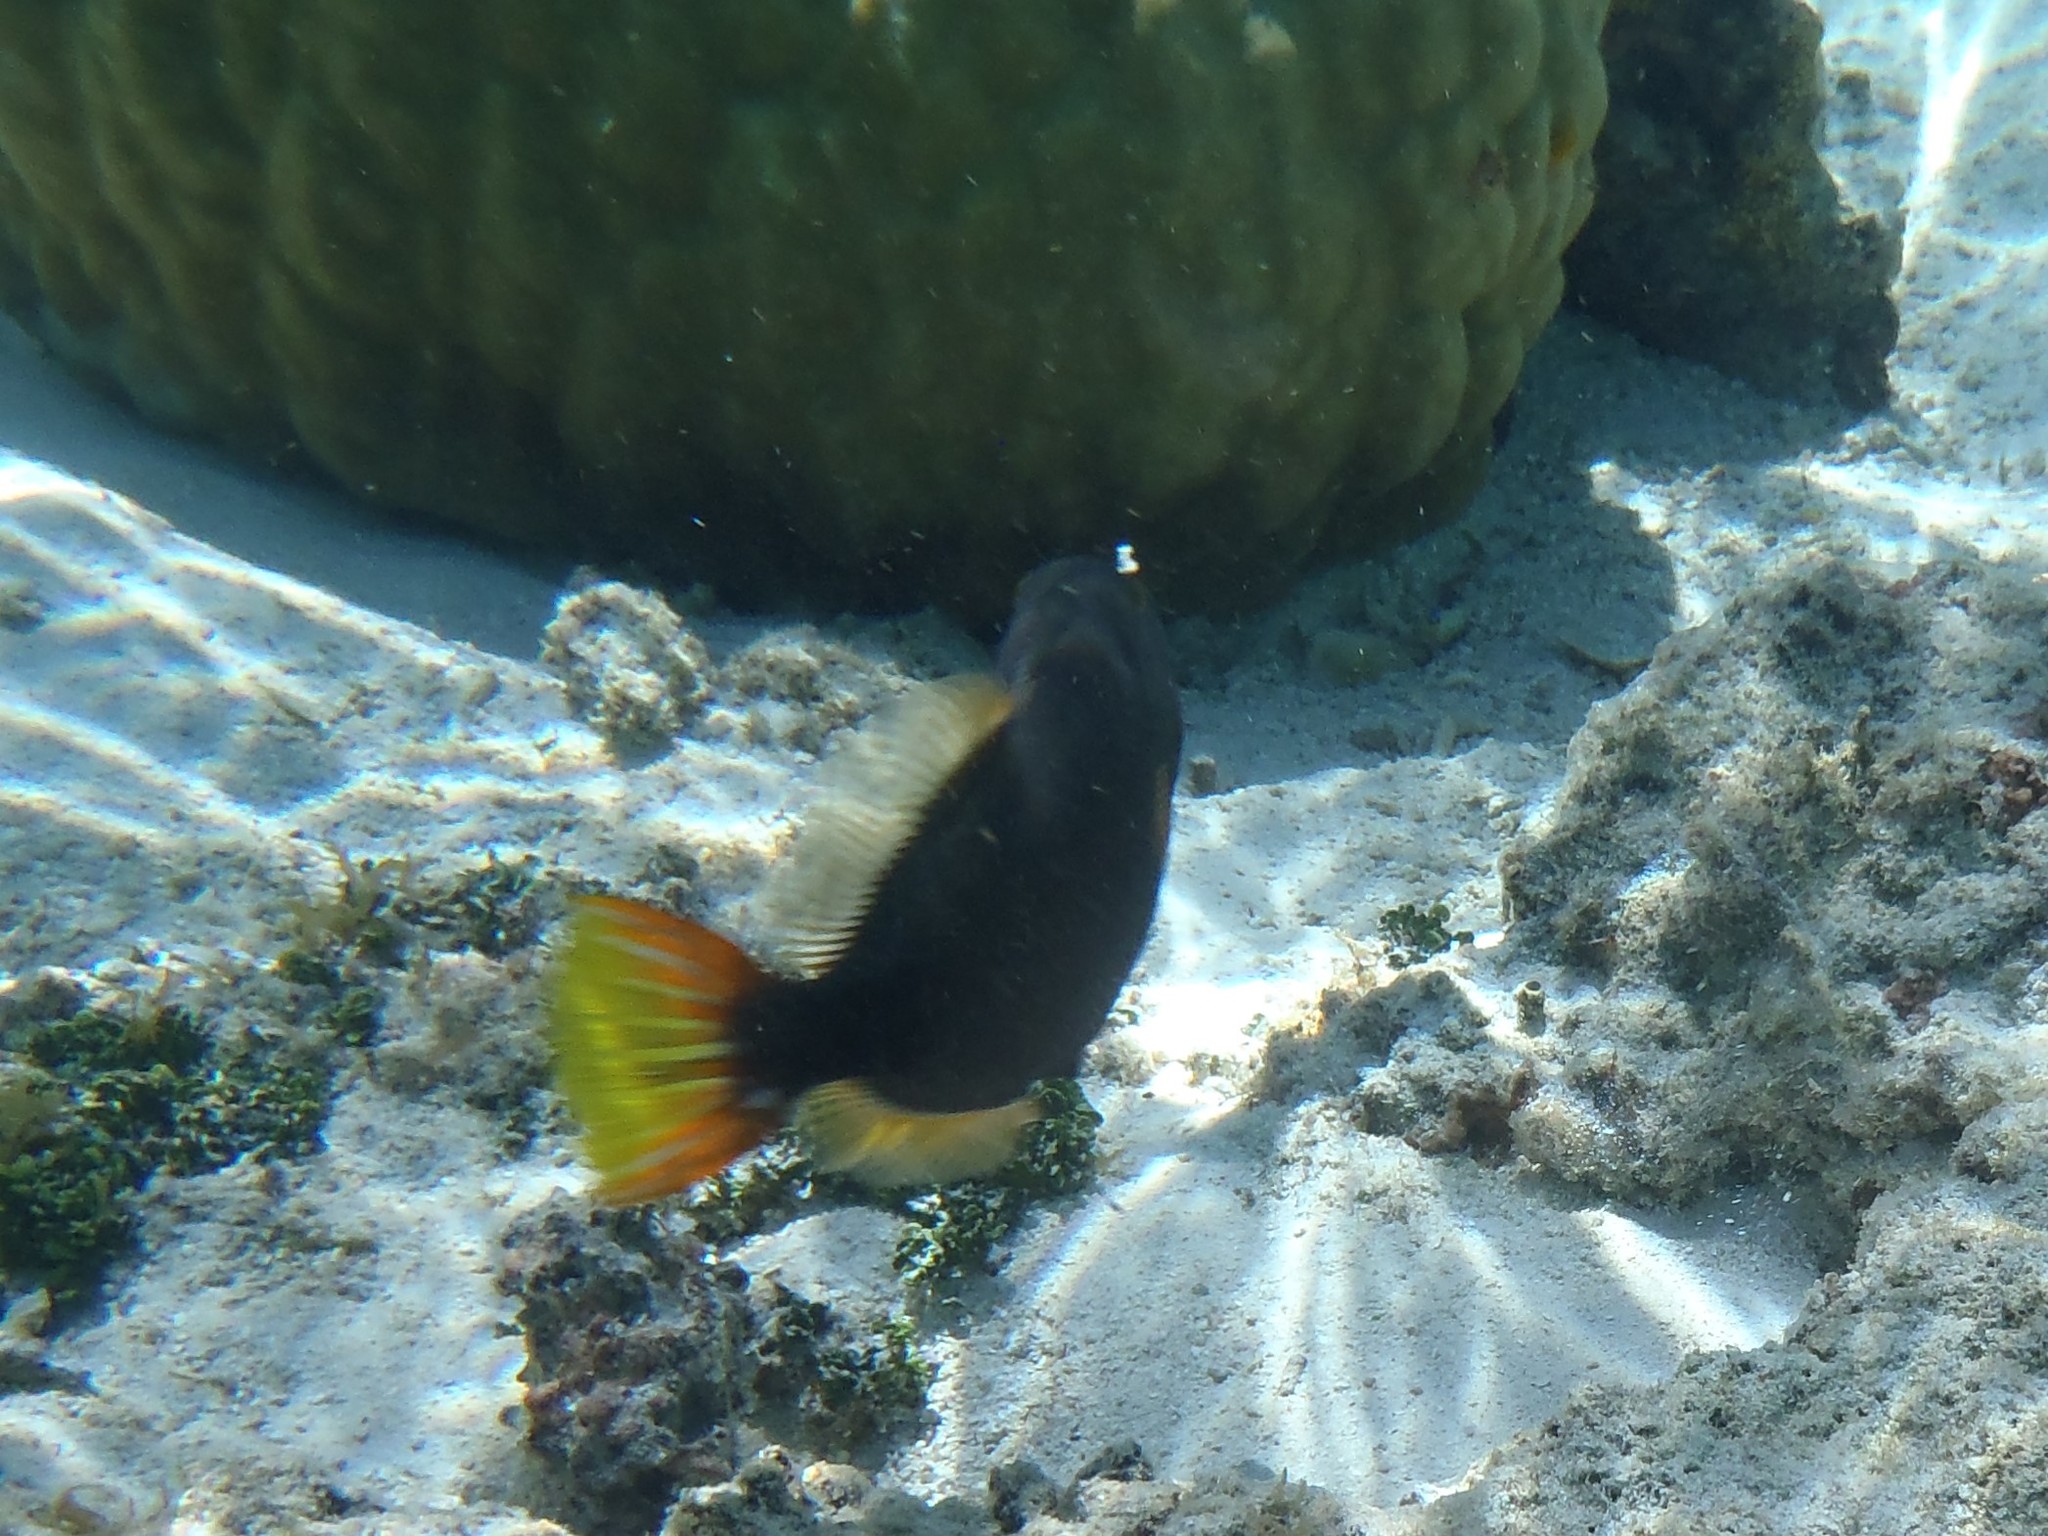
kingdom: Animalia
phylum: Chordata
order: Tetraodontiformes
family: Balistidae
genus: Balistapus
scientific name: Balistapus undulatus
